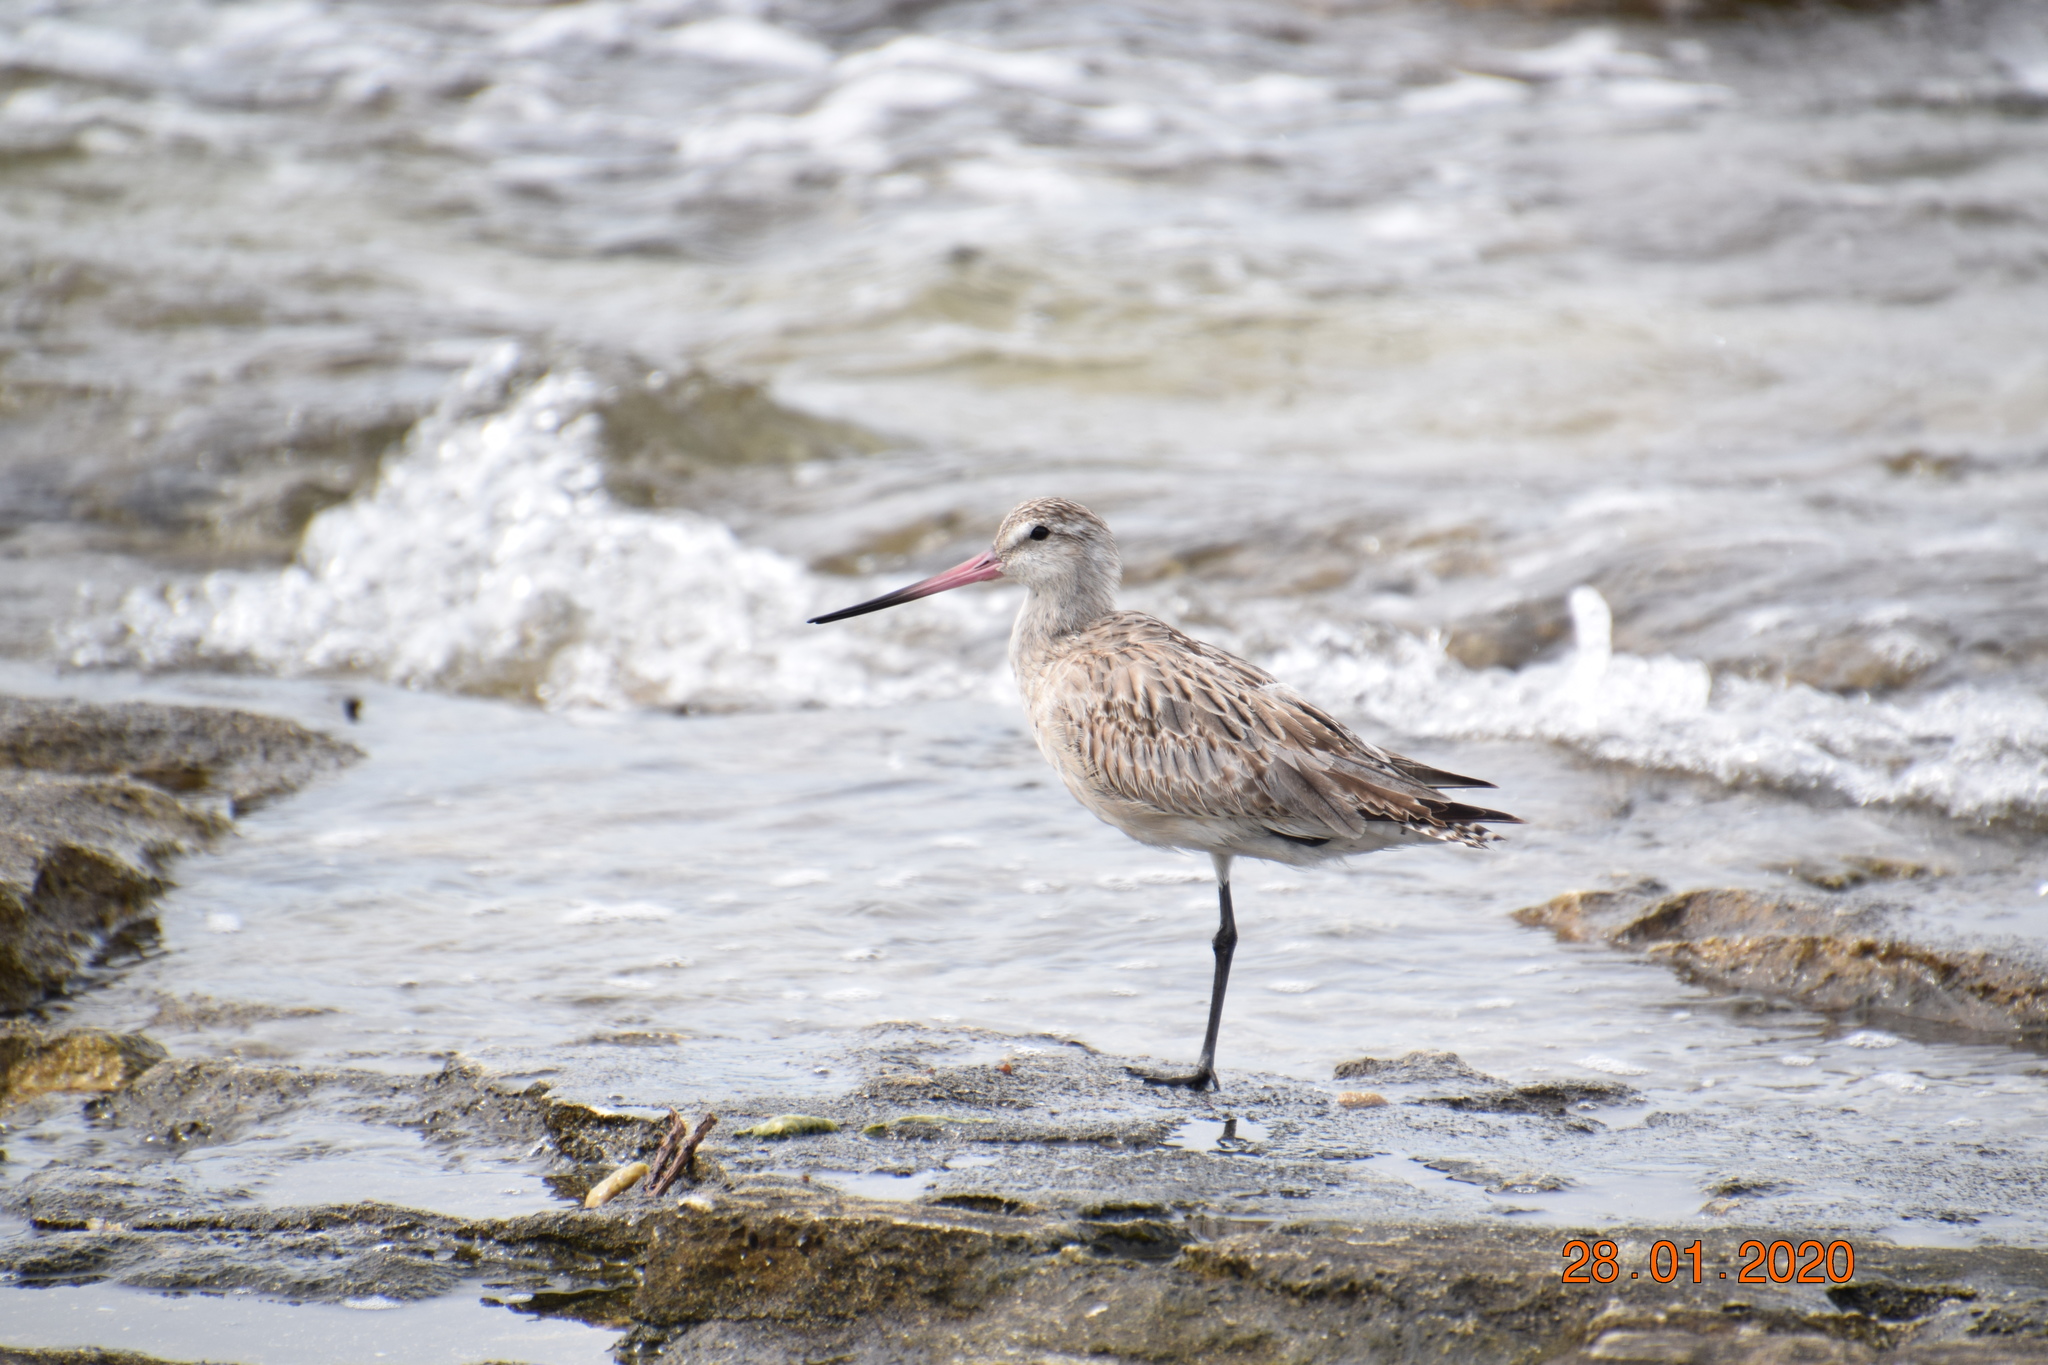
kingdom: Animalia
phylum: Chordata
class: Aves
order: Charadriiformes
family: Scolopacidae
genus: Limosa
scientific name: Limosa lapponica
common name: Bar-tailed godwit
